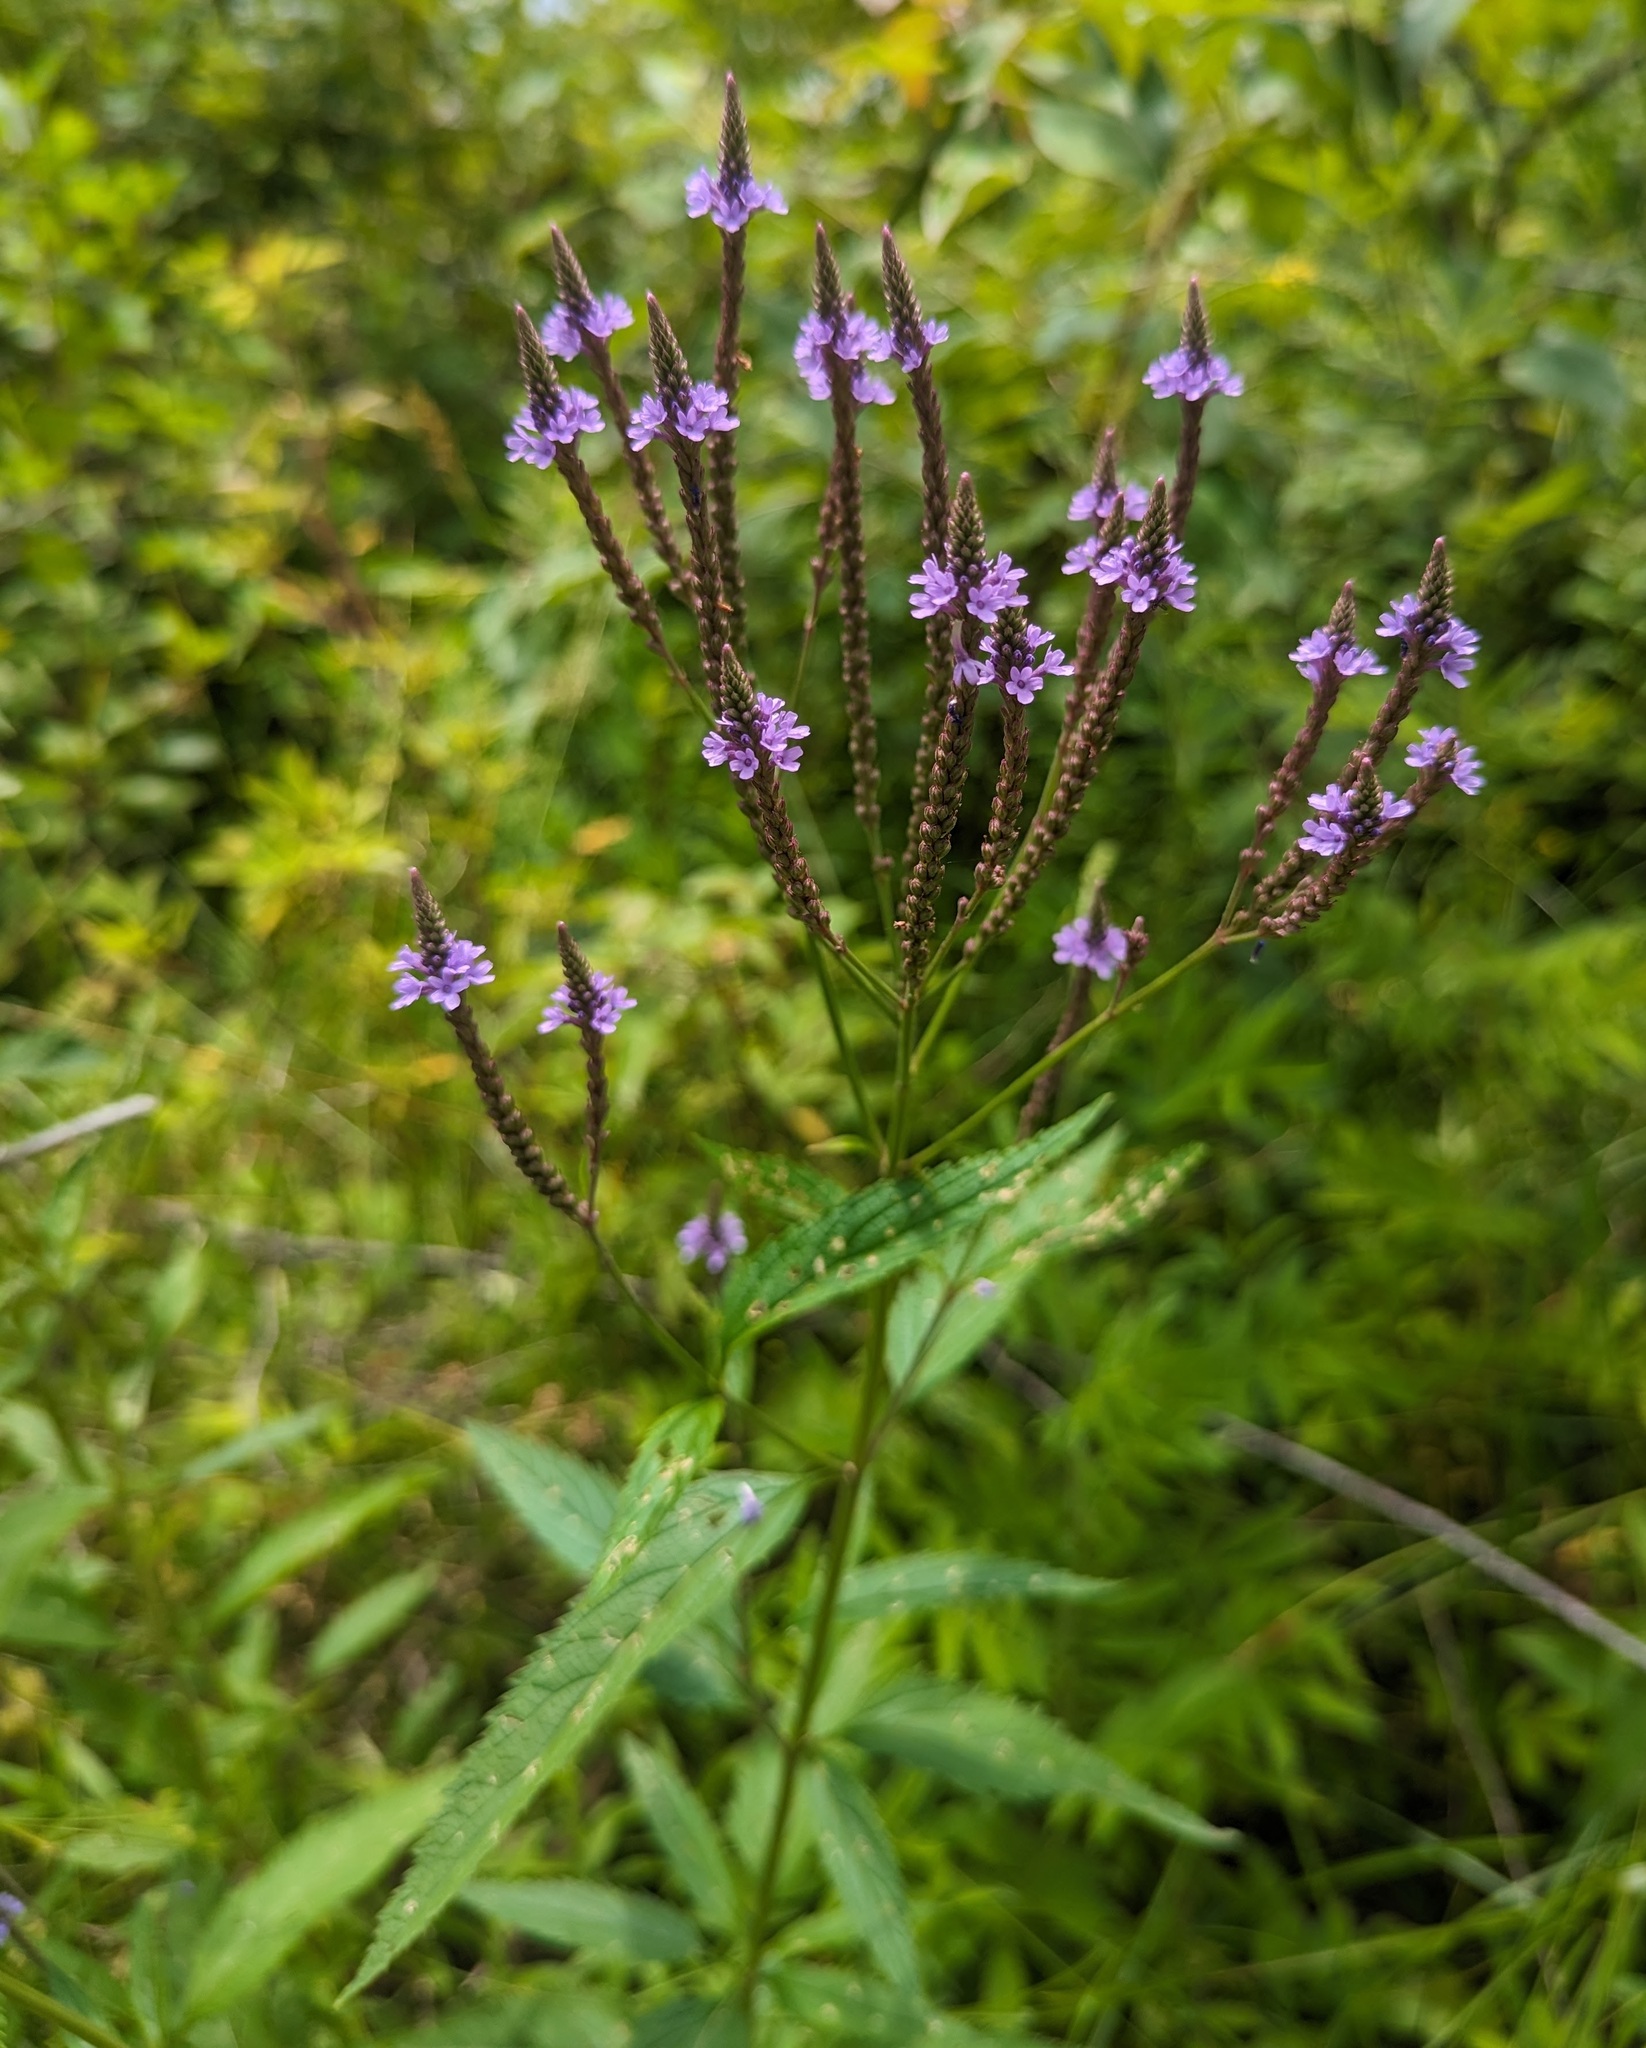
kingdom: Plantae
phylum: Tracheophyta
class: Magnoliopsida
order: Lamiales
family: Verbenaceae
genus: Verbena
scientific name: Verbena hastata
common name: American blue vervain
